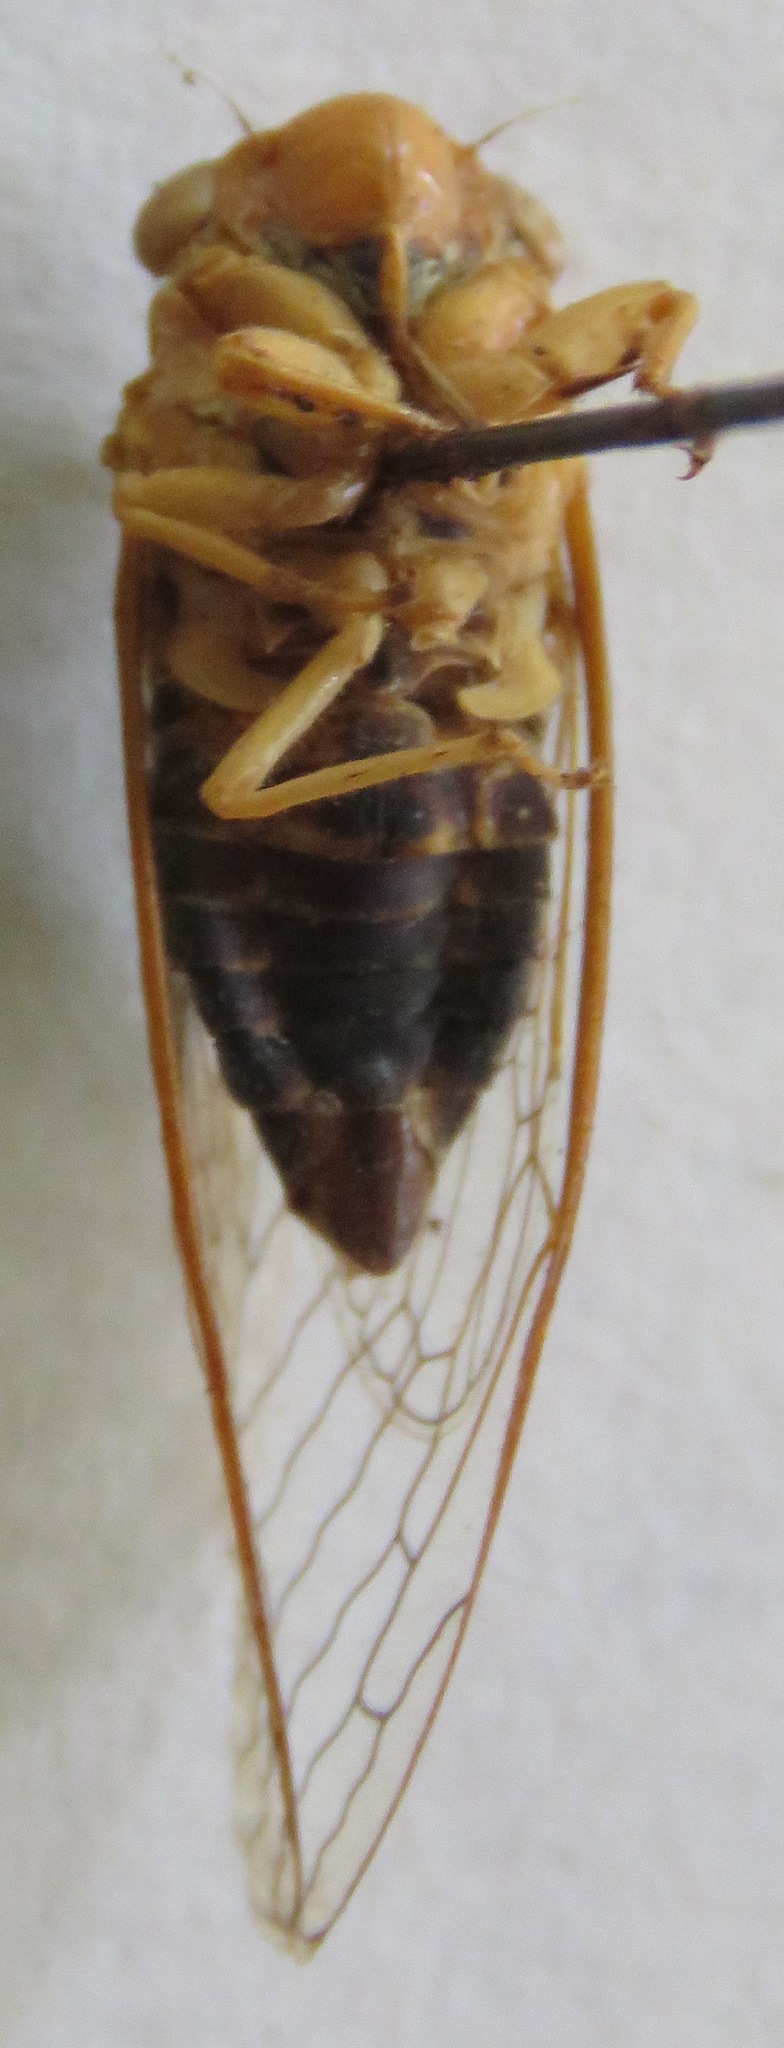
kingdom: Animalia
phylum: Arthropoda
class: Insecta
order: Hemiptera
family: Cicadidae
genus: Herrera
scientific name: Herrera ancilla
